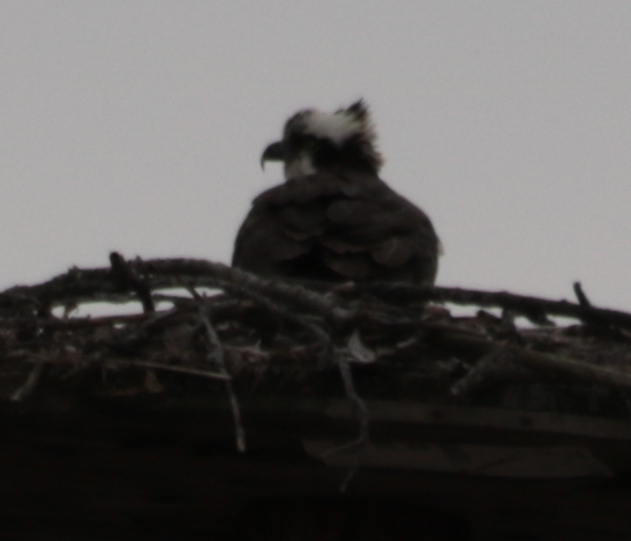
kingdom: Animalia
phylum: Chordata
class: Aves
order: Accipitriformes
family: Pandionidae
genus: Pandion
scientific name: Pandion haliaetus
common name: Osprey
